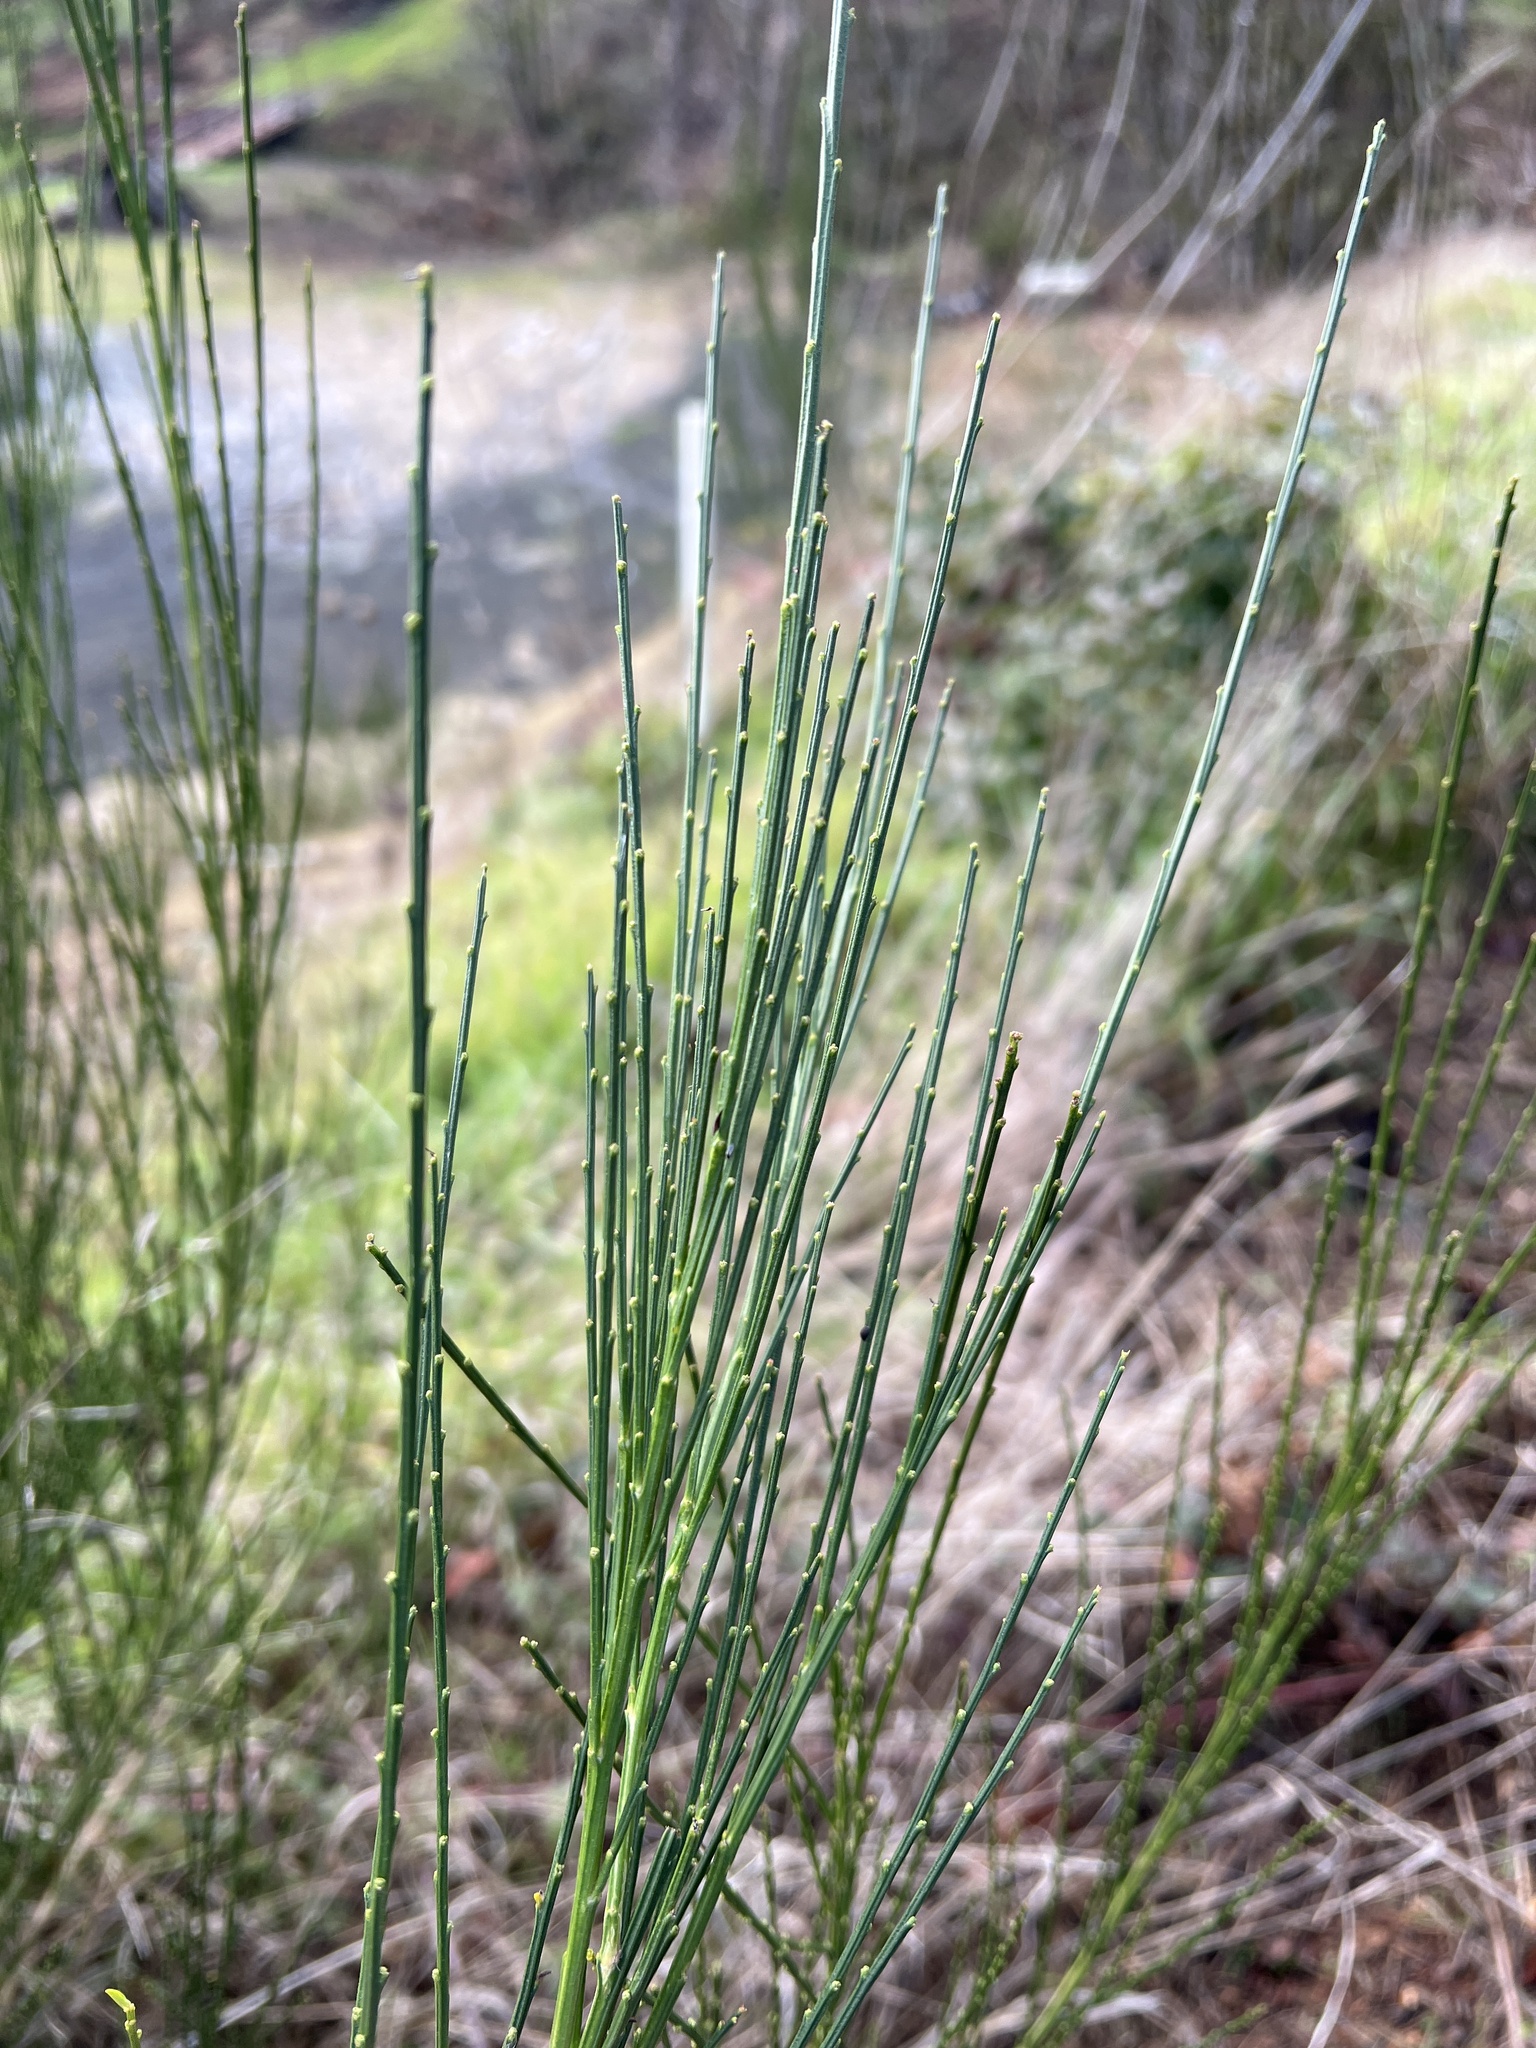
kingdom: Plantae
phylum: Tracheophyta
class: Magnoliopsida
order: Fabales
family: Fabaceae
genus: Cytisus
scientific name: Cytisus scoparius
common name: Scotch broom
